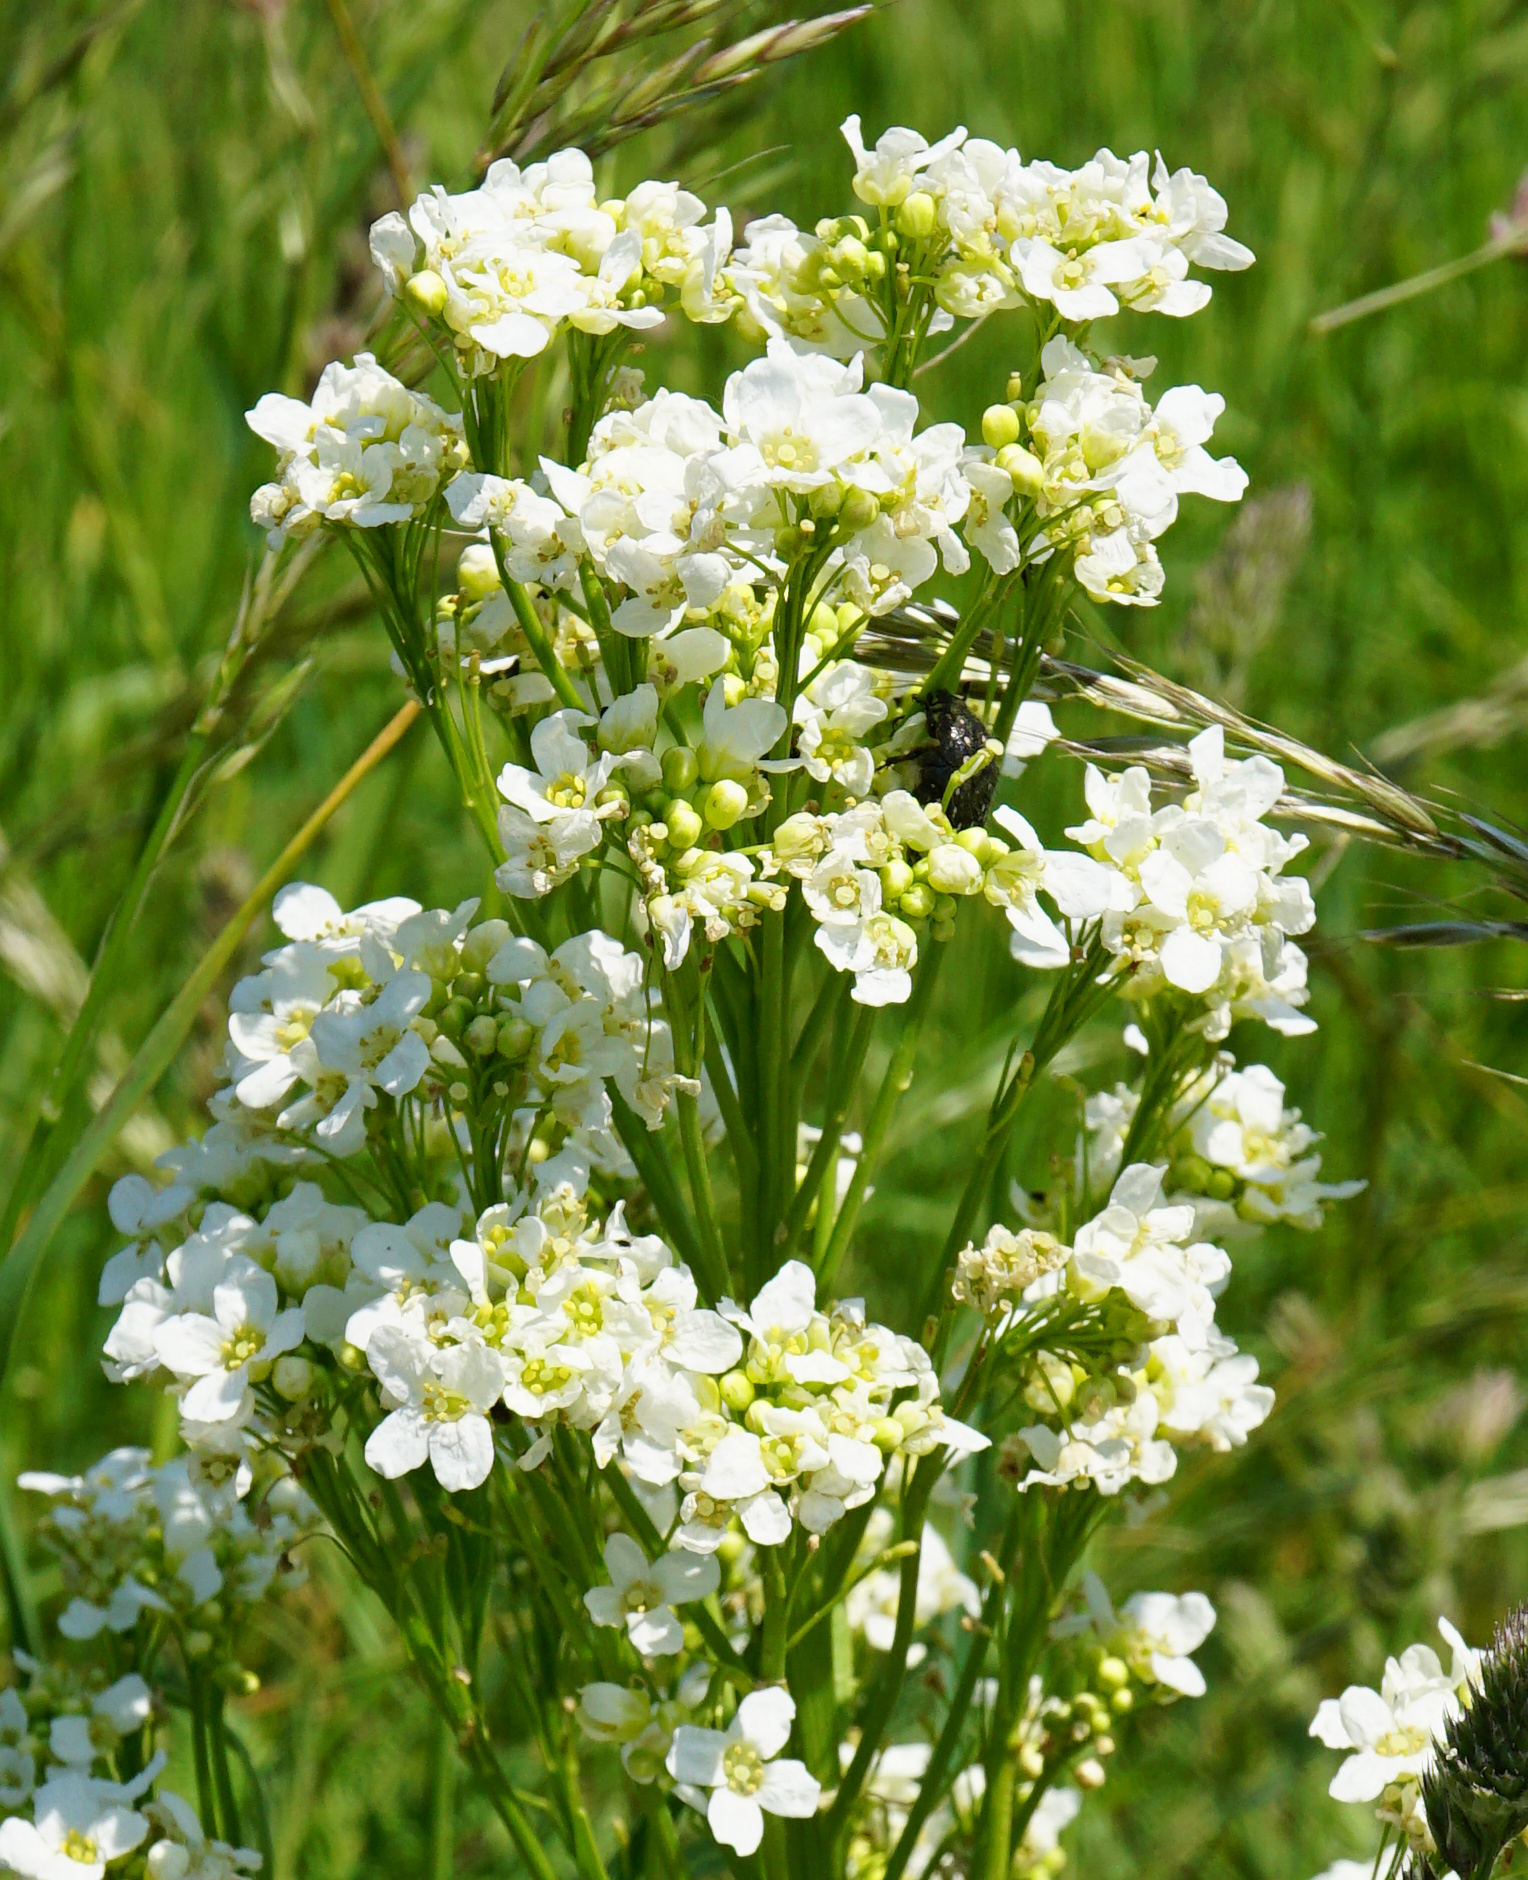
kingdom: Plantae
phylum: Tracheophyta
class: Magnoliopsida
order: Brassicales
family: Brassicaceae
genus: Armoracia
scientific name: Armoracia rusticana
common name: Horseradish
